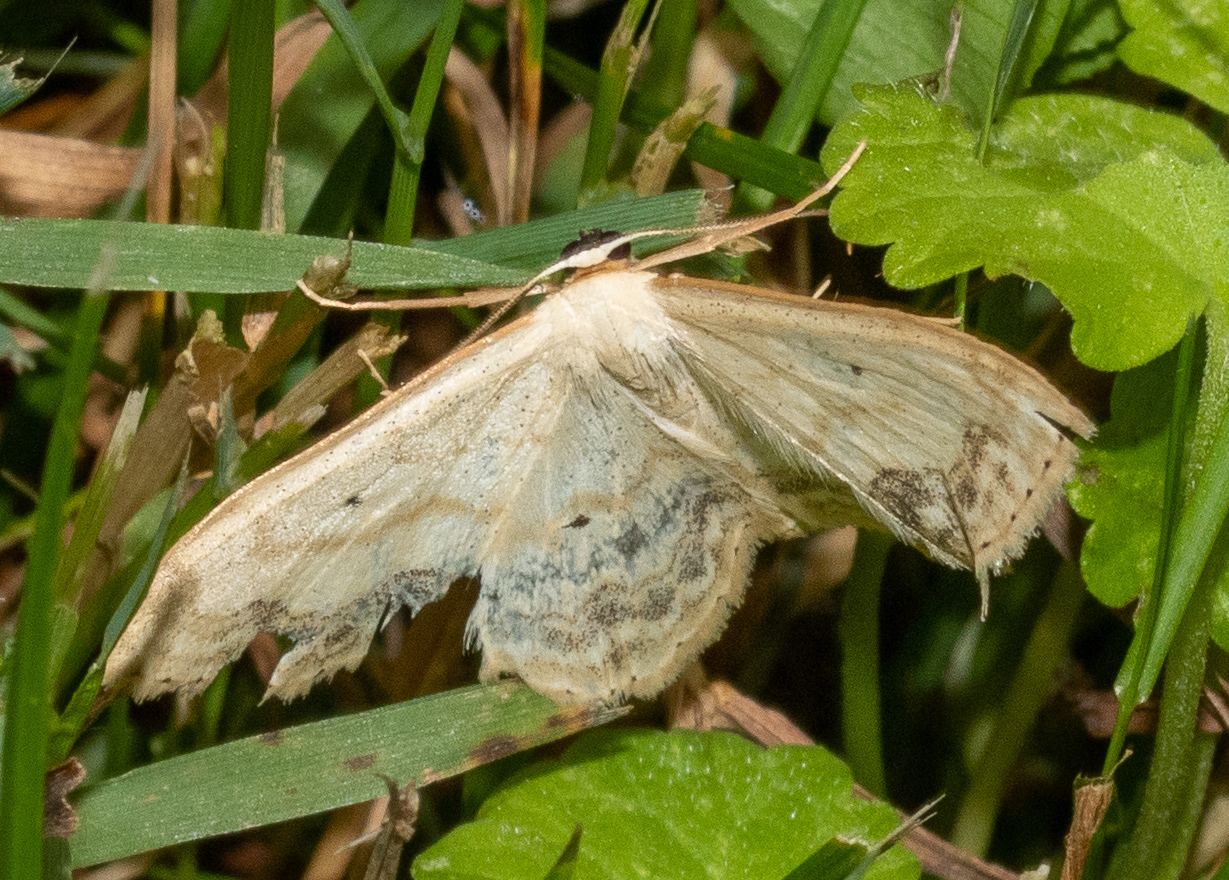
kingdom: Animalia
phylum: Arthropoda
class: Insecta
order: Lepidoptera
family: Geometridae
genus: Scopula
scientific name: Scopula limboundata
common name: Large lace border
